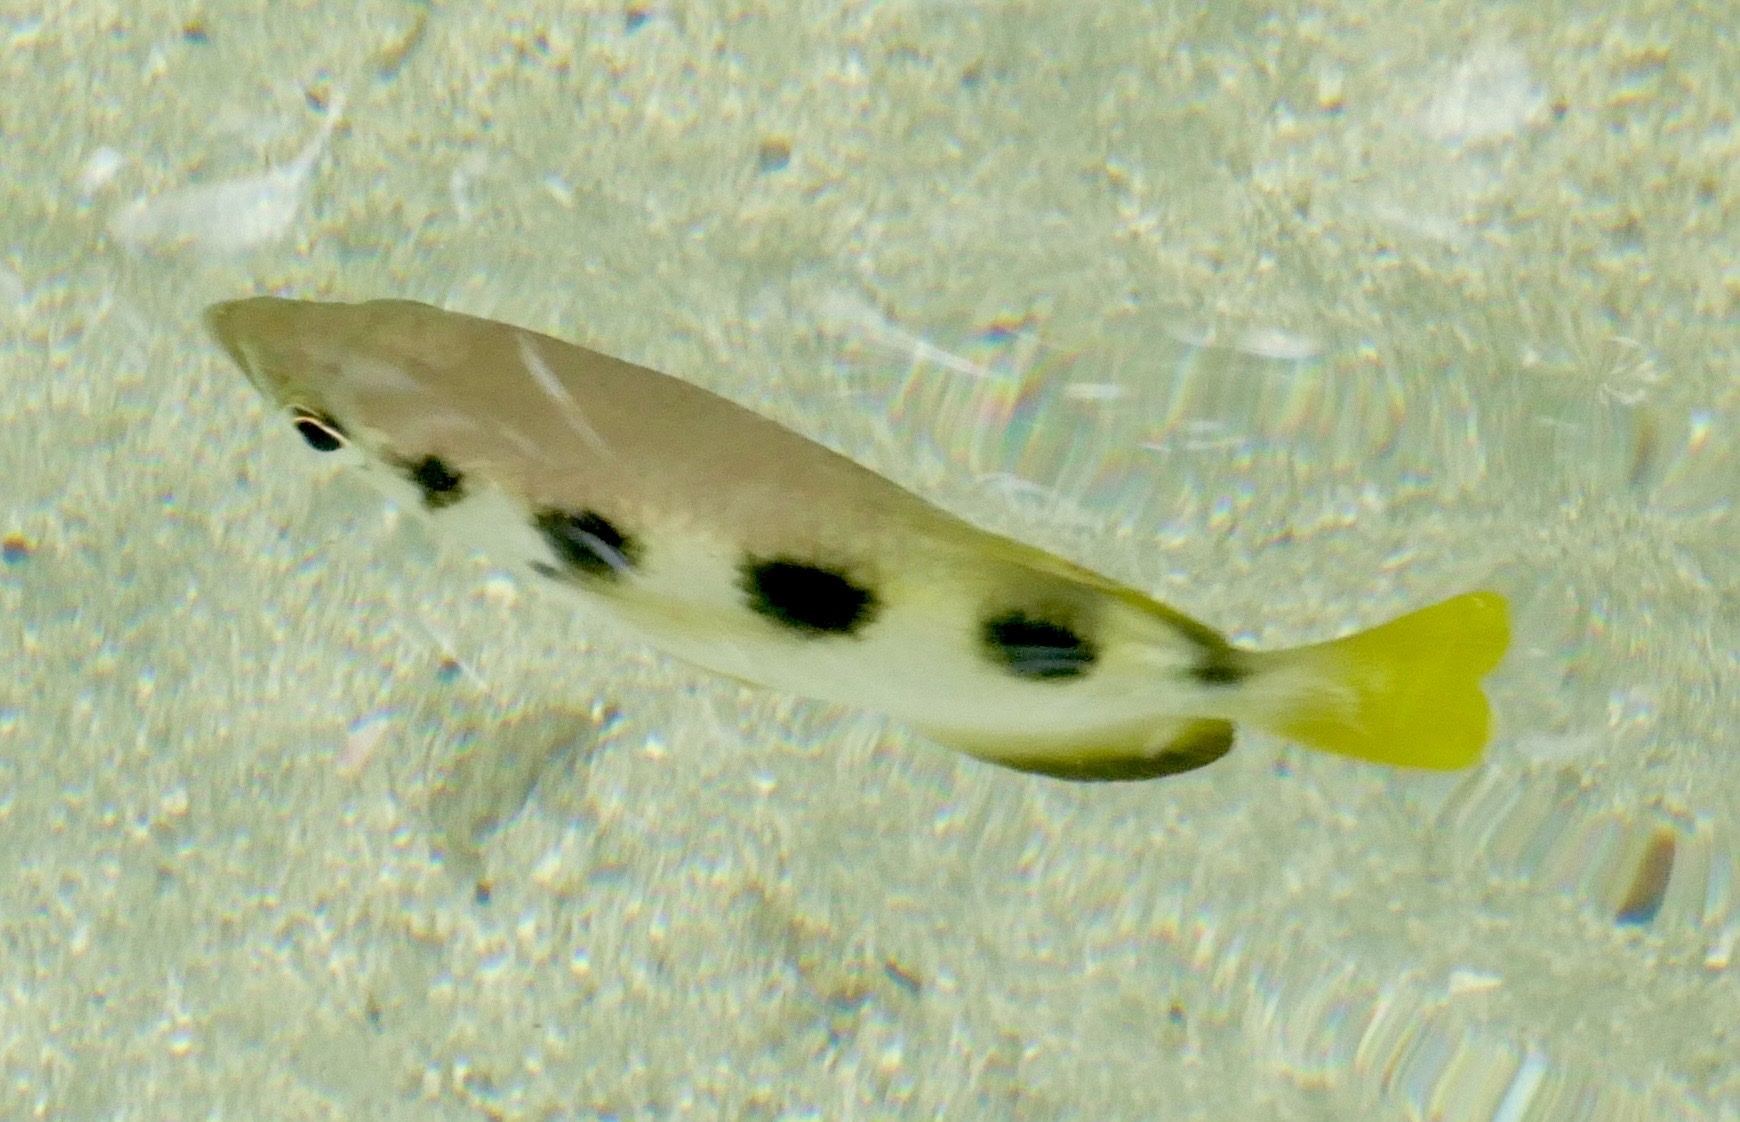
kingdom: Animalia
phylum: Chordata
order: Perciformes
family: Toxotidae
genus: Toxotes
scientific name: Toxotes jaculatrix
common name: Banded archerfish
